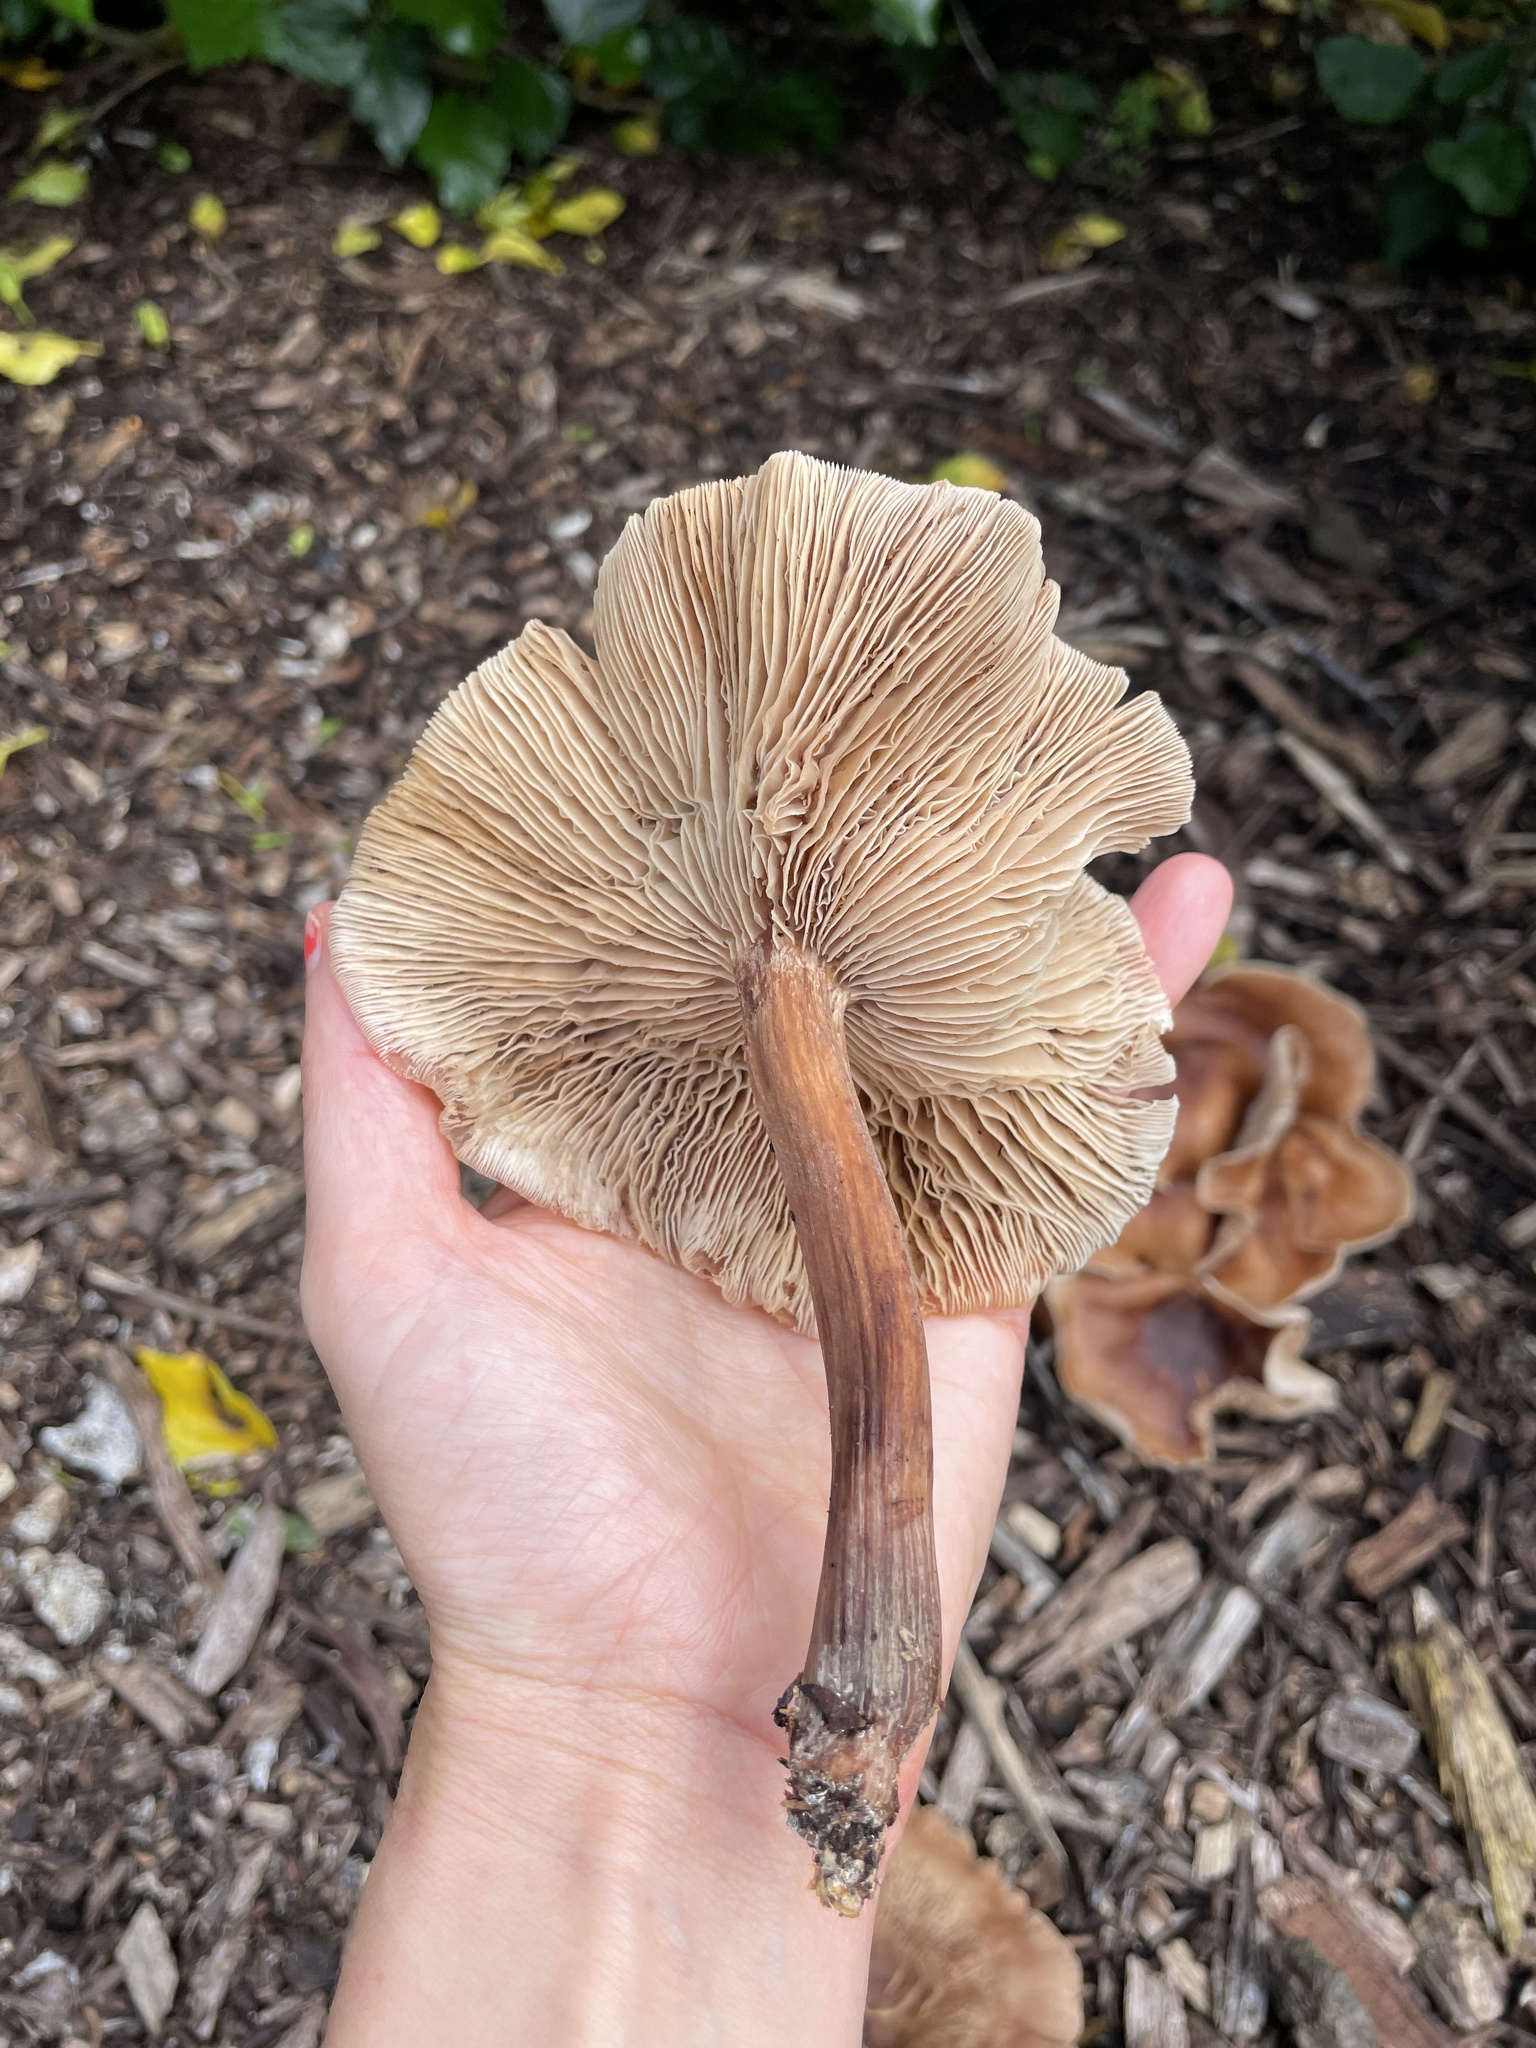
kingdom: Fungi
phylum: Basidiomycota
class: Agaricomycetes
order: Agaricales
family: Omphalotaceae
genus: Collybiopsis
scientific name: Collybiopsis luxurians
